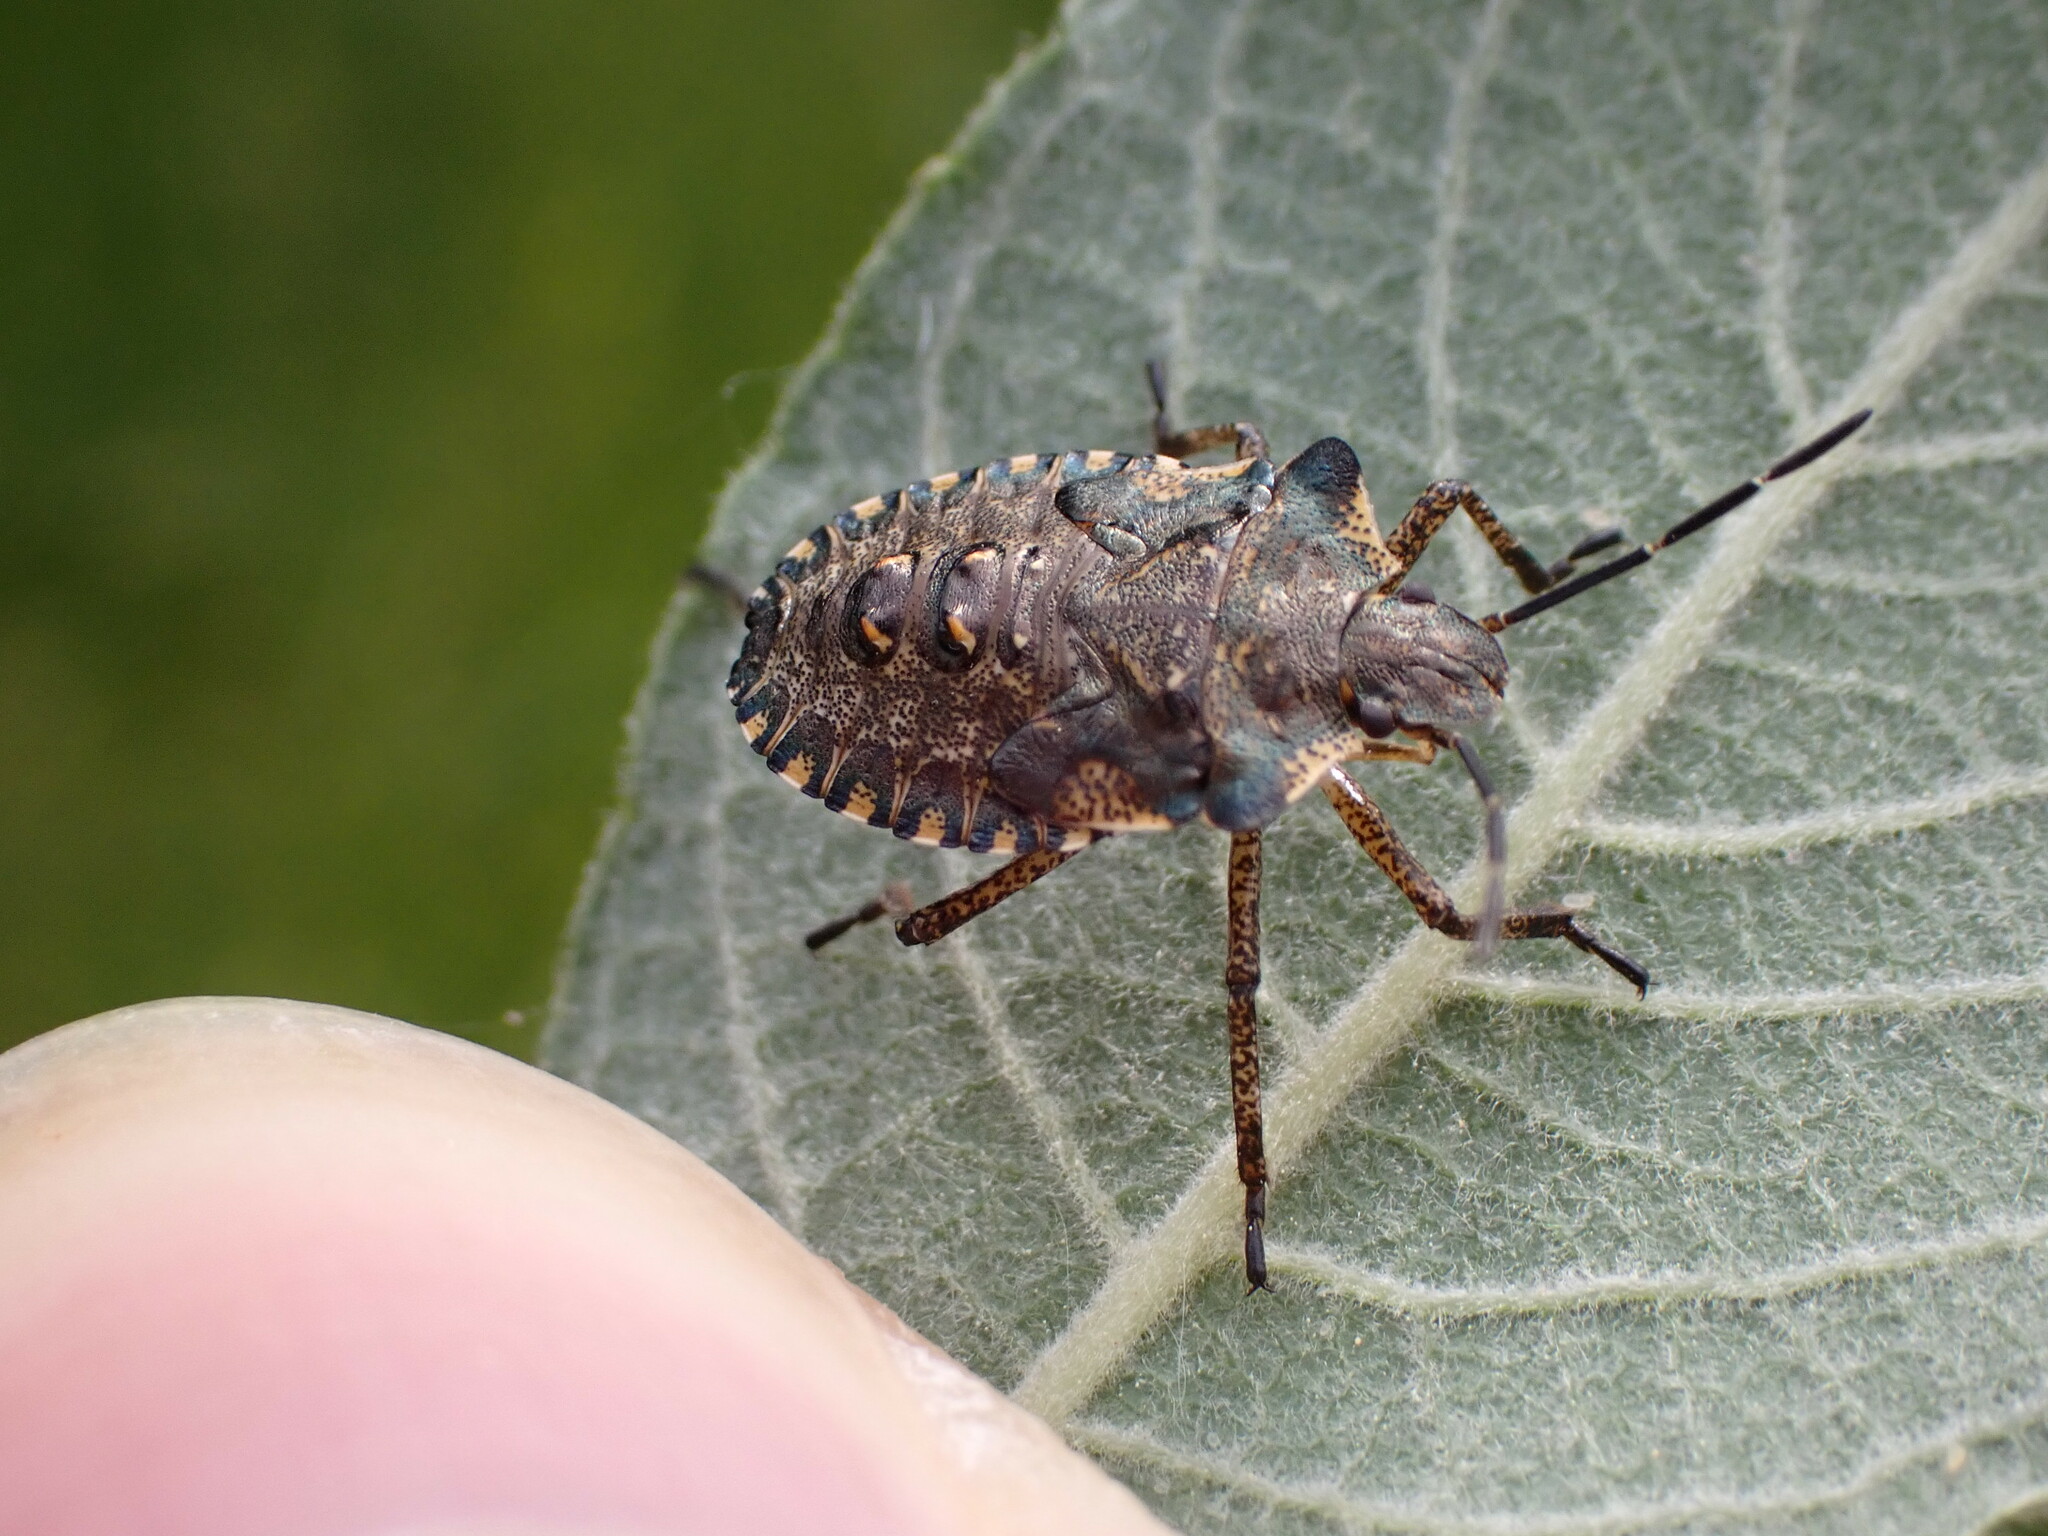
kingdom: Animalia
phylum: Arthropoda
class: Insecta
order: Hemiptera
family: Pentatomidae
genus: Pentatoma
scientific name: Pentatoma rufipes
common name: Forest bug
